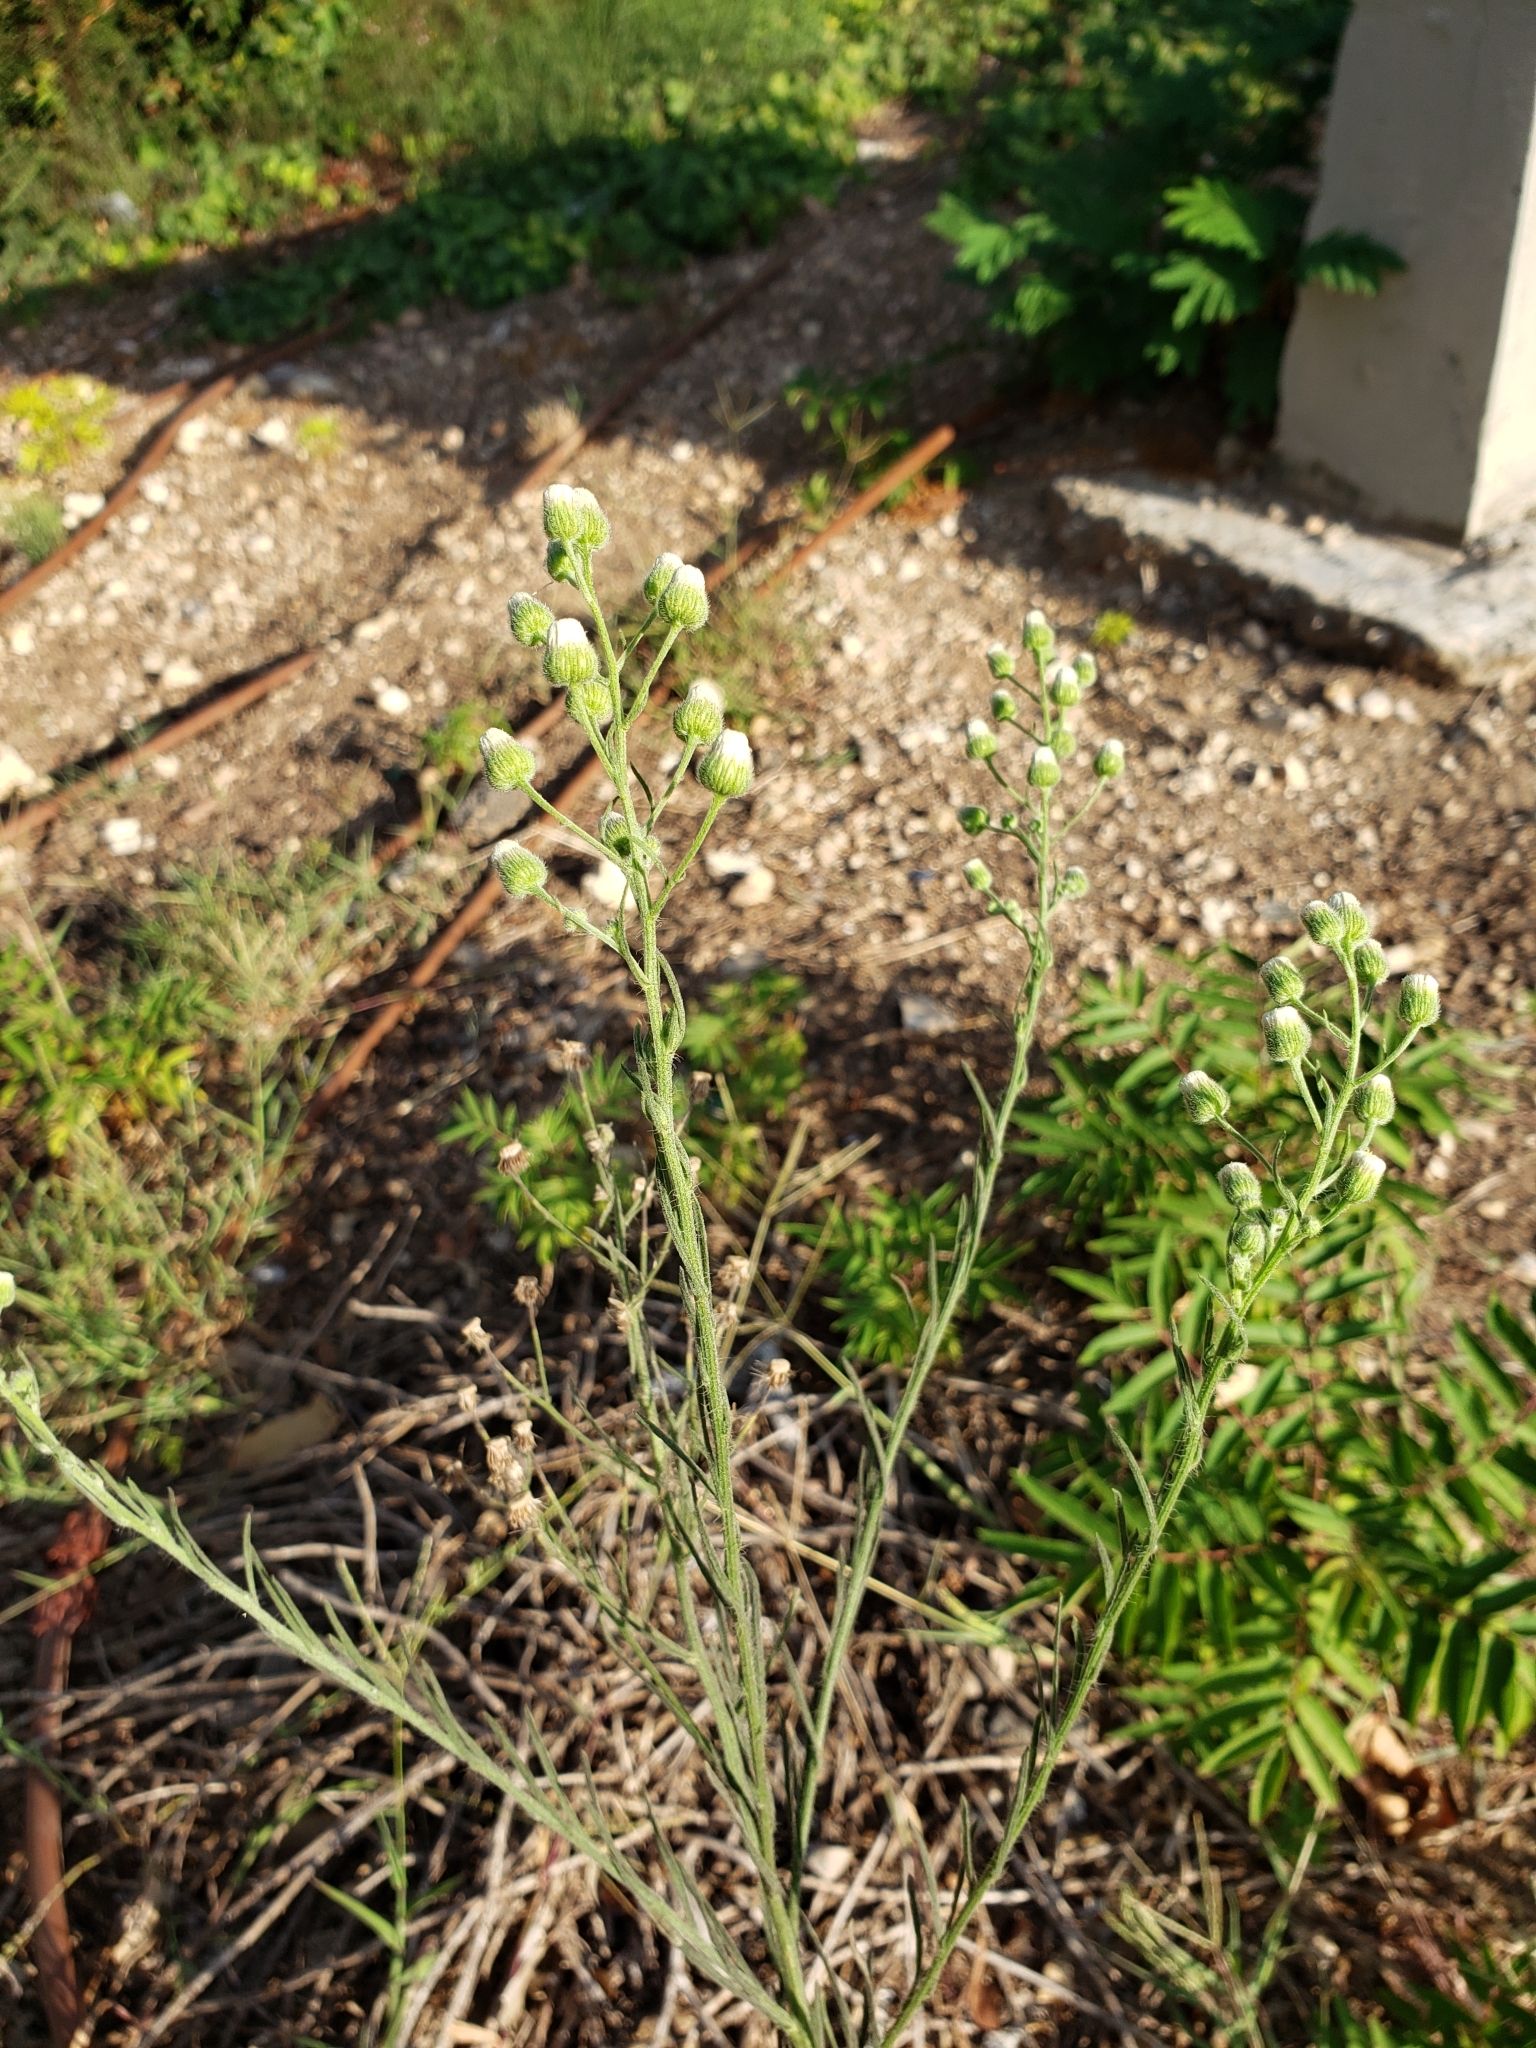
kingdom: Plantae
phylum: Tracheophyta
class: Magnoliopsida
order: Asterales
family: Asteraceae
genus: Erigeron
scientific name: Erigeron bonariensis
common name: Argentine fleabane
